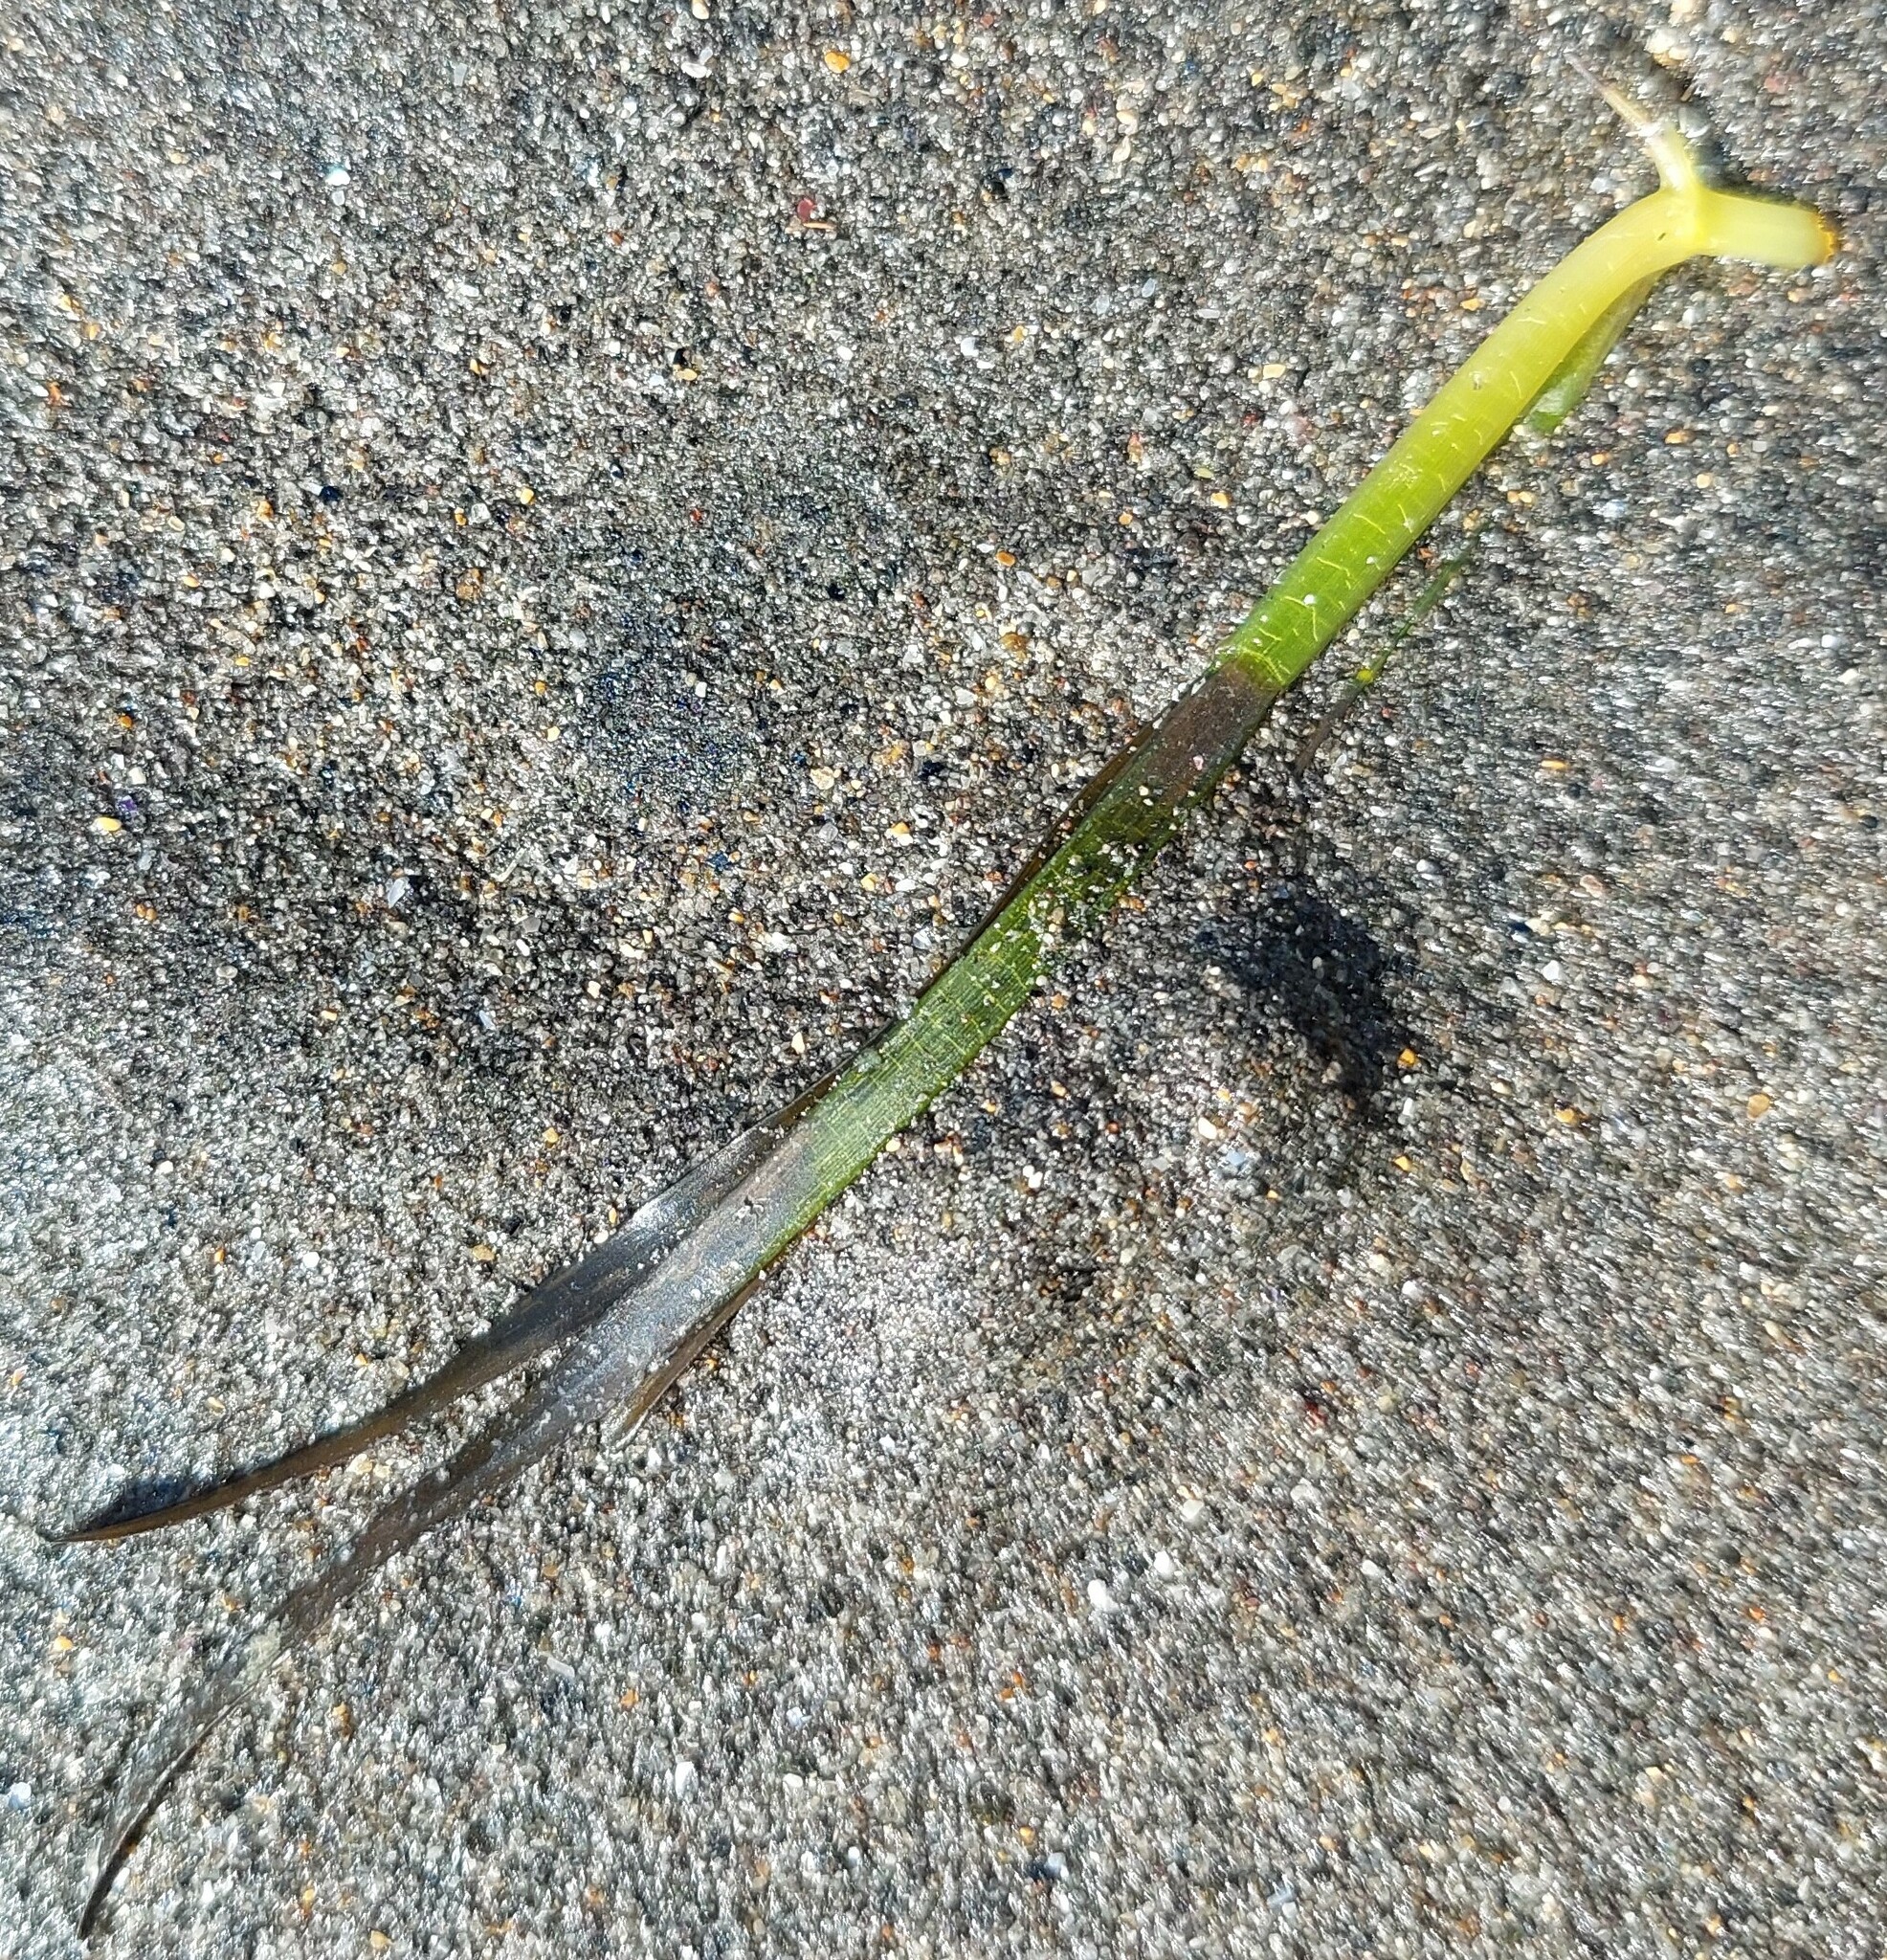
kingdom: Plantae
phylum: Tracheophyta
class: Liliopsida
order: Alismatales
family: Zosteraceae
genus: Zostera
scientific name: Zostera muelleri
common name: Species code: zc
